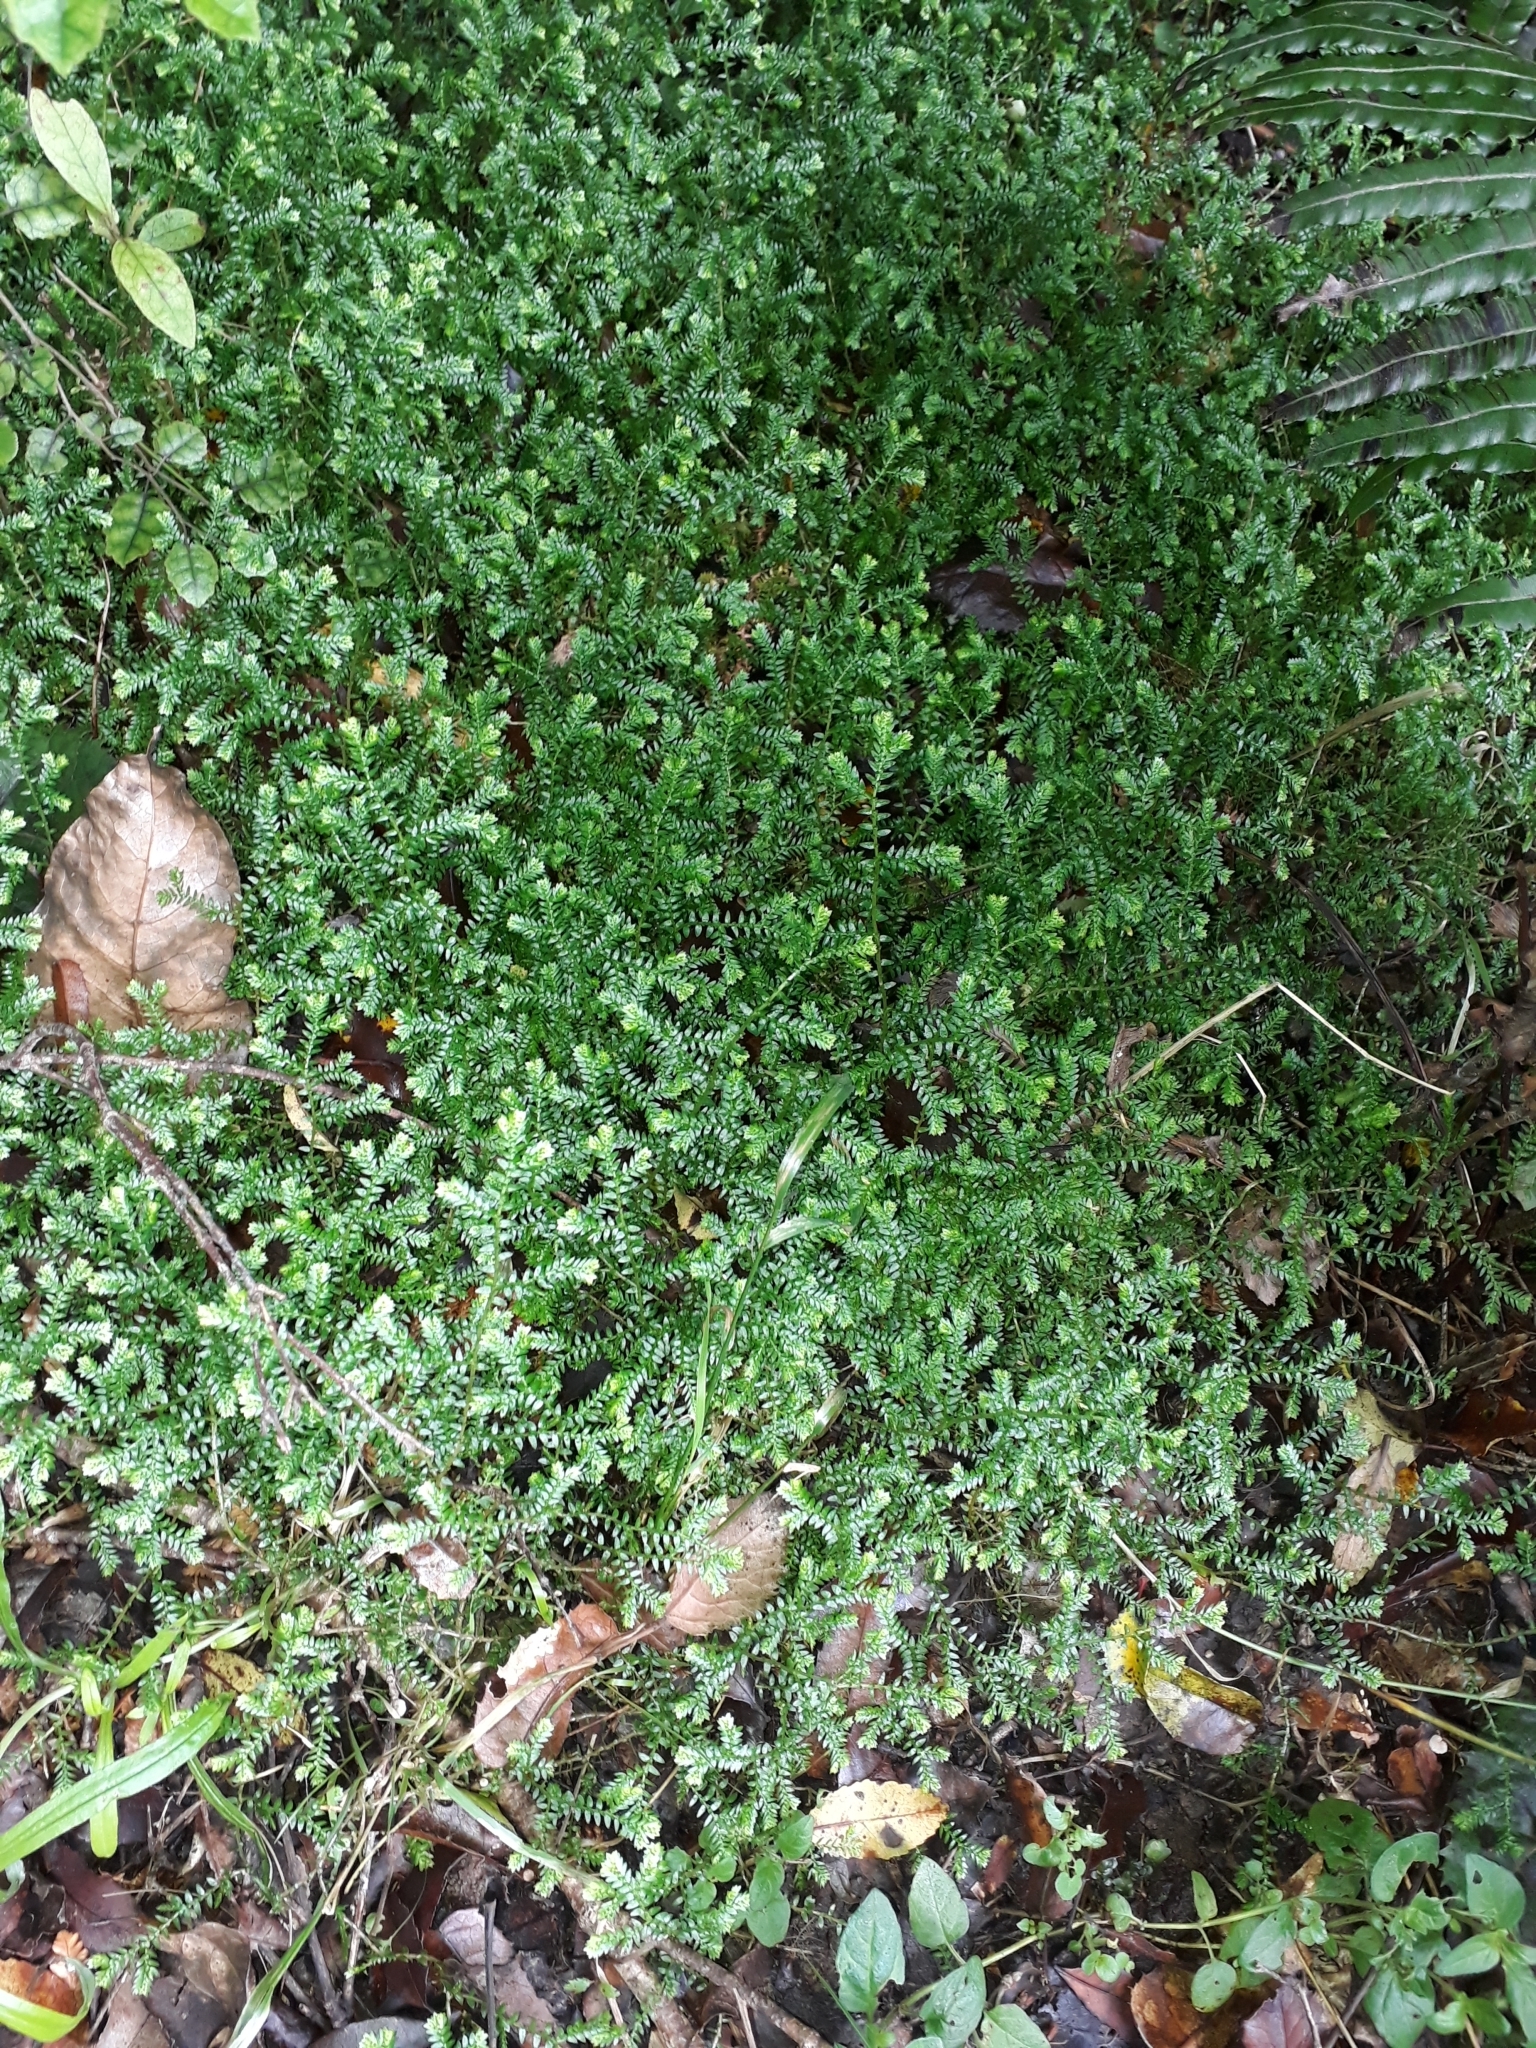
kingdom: Plantae
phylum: Tracheophyta
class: Lycopodiopsida
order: Selaginellales
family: Selaginellaceae
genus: Selaginella
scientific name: Selaginella kraussiana
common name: Krauss' spikemoss
